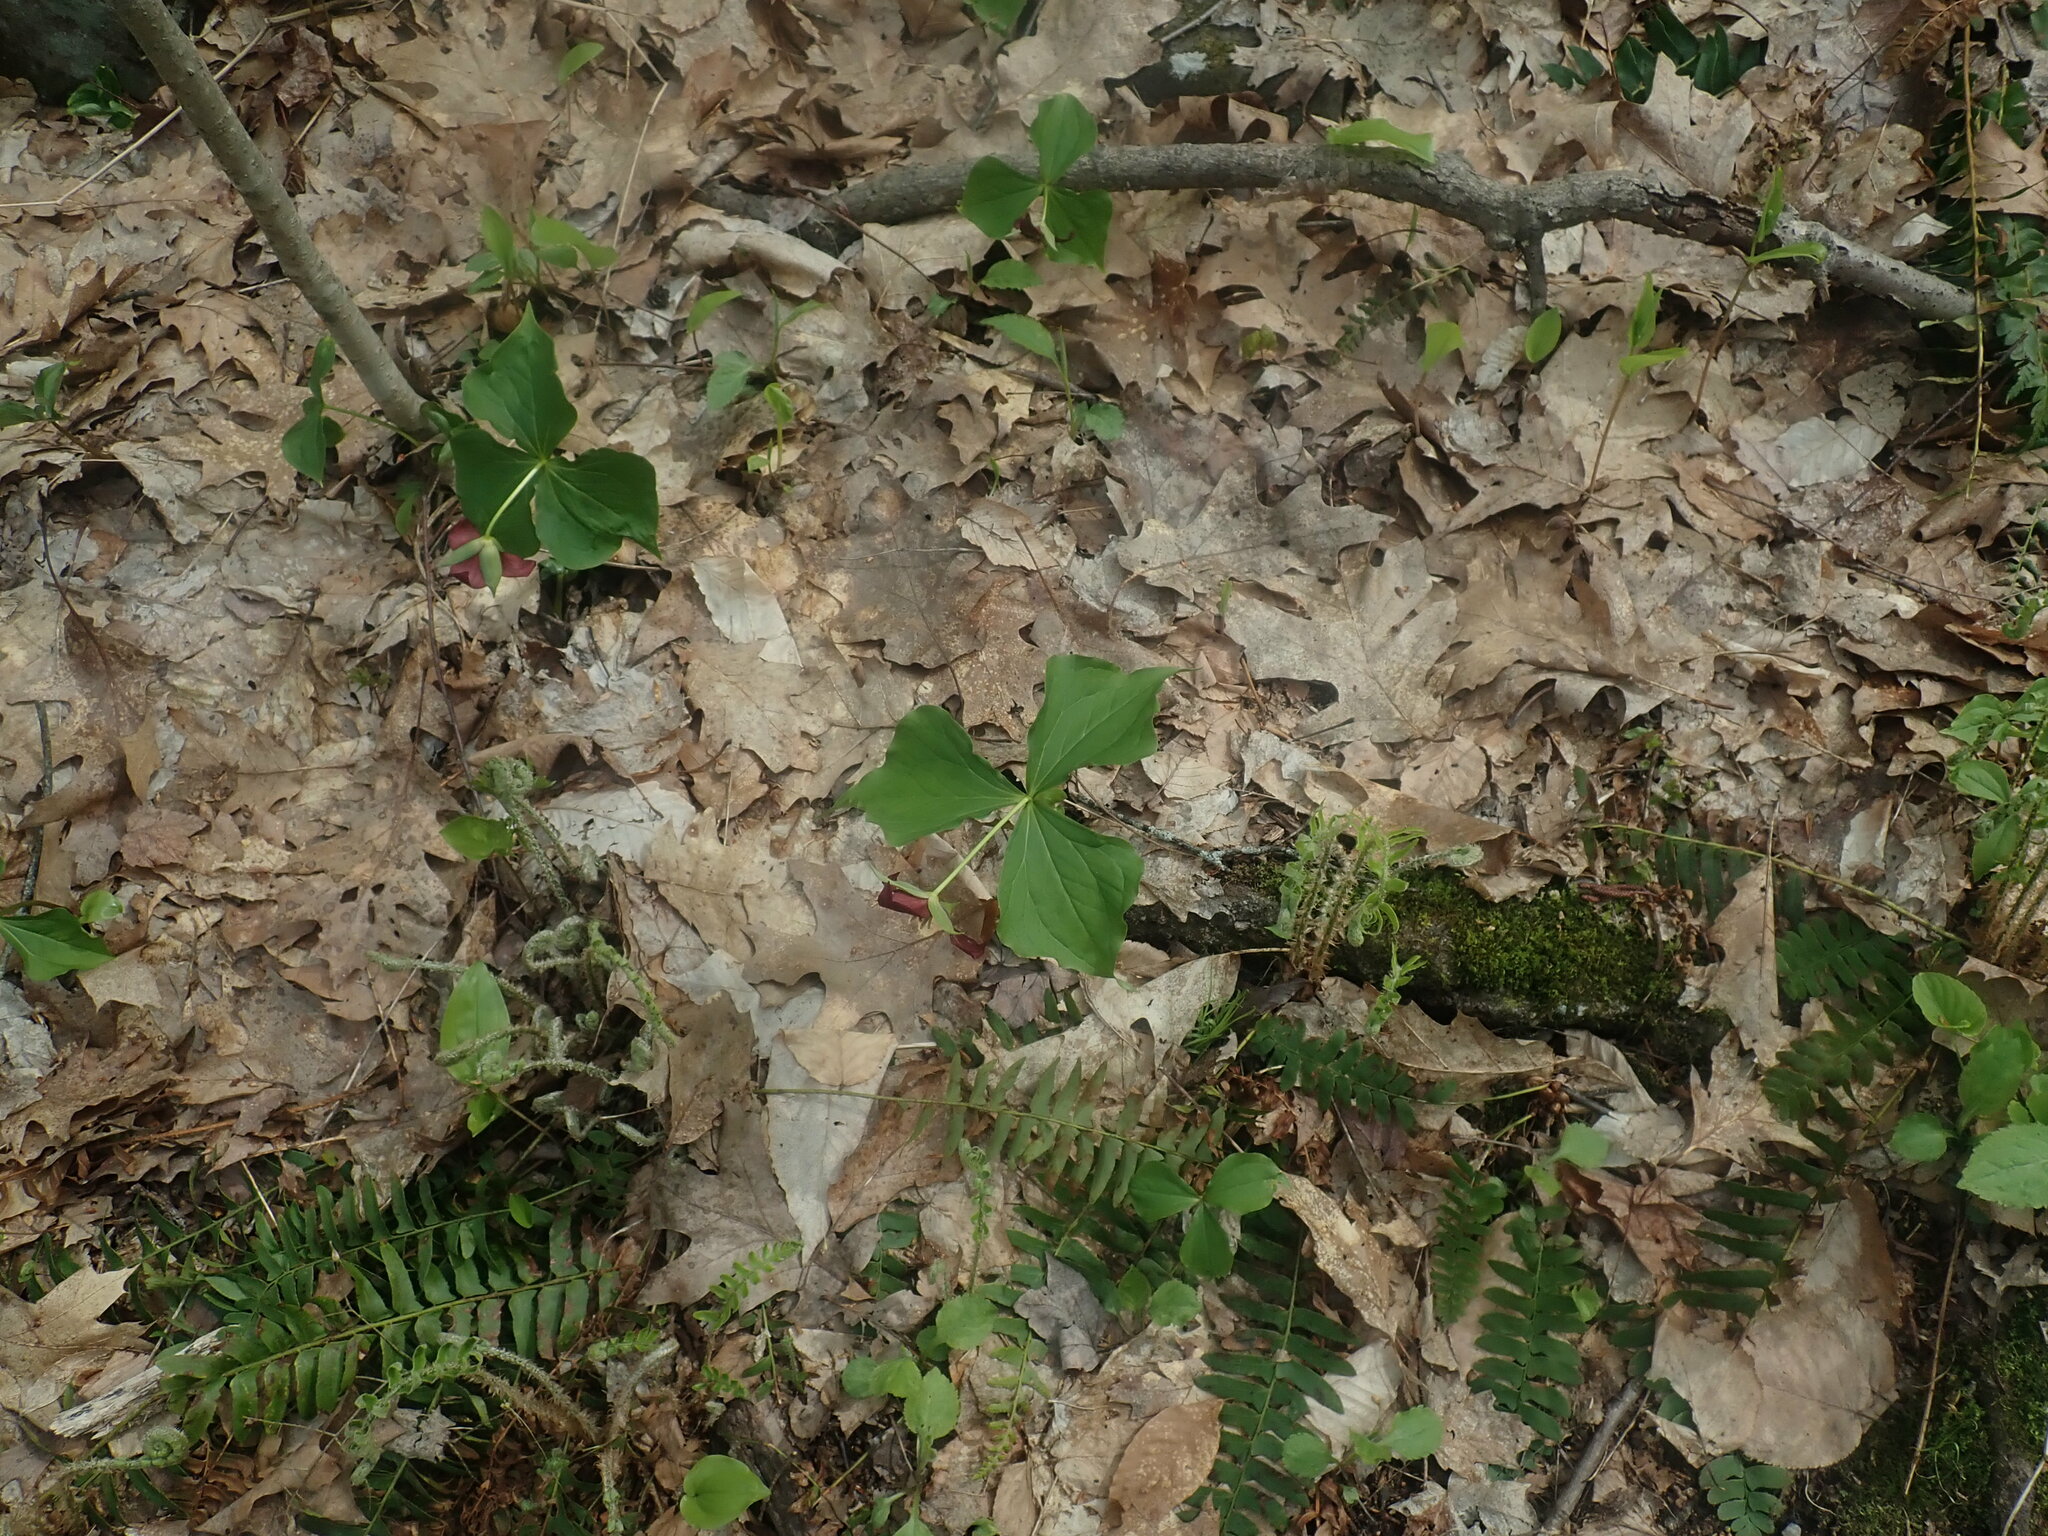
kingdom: Plantae
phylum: Tracheophyta
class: Liliopsida
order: Liliales
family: Melanthiaceae
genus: Trillium
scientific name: Trillium erectum
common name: Purple trillium
